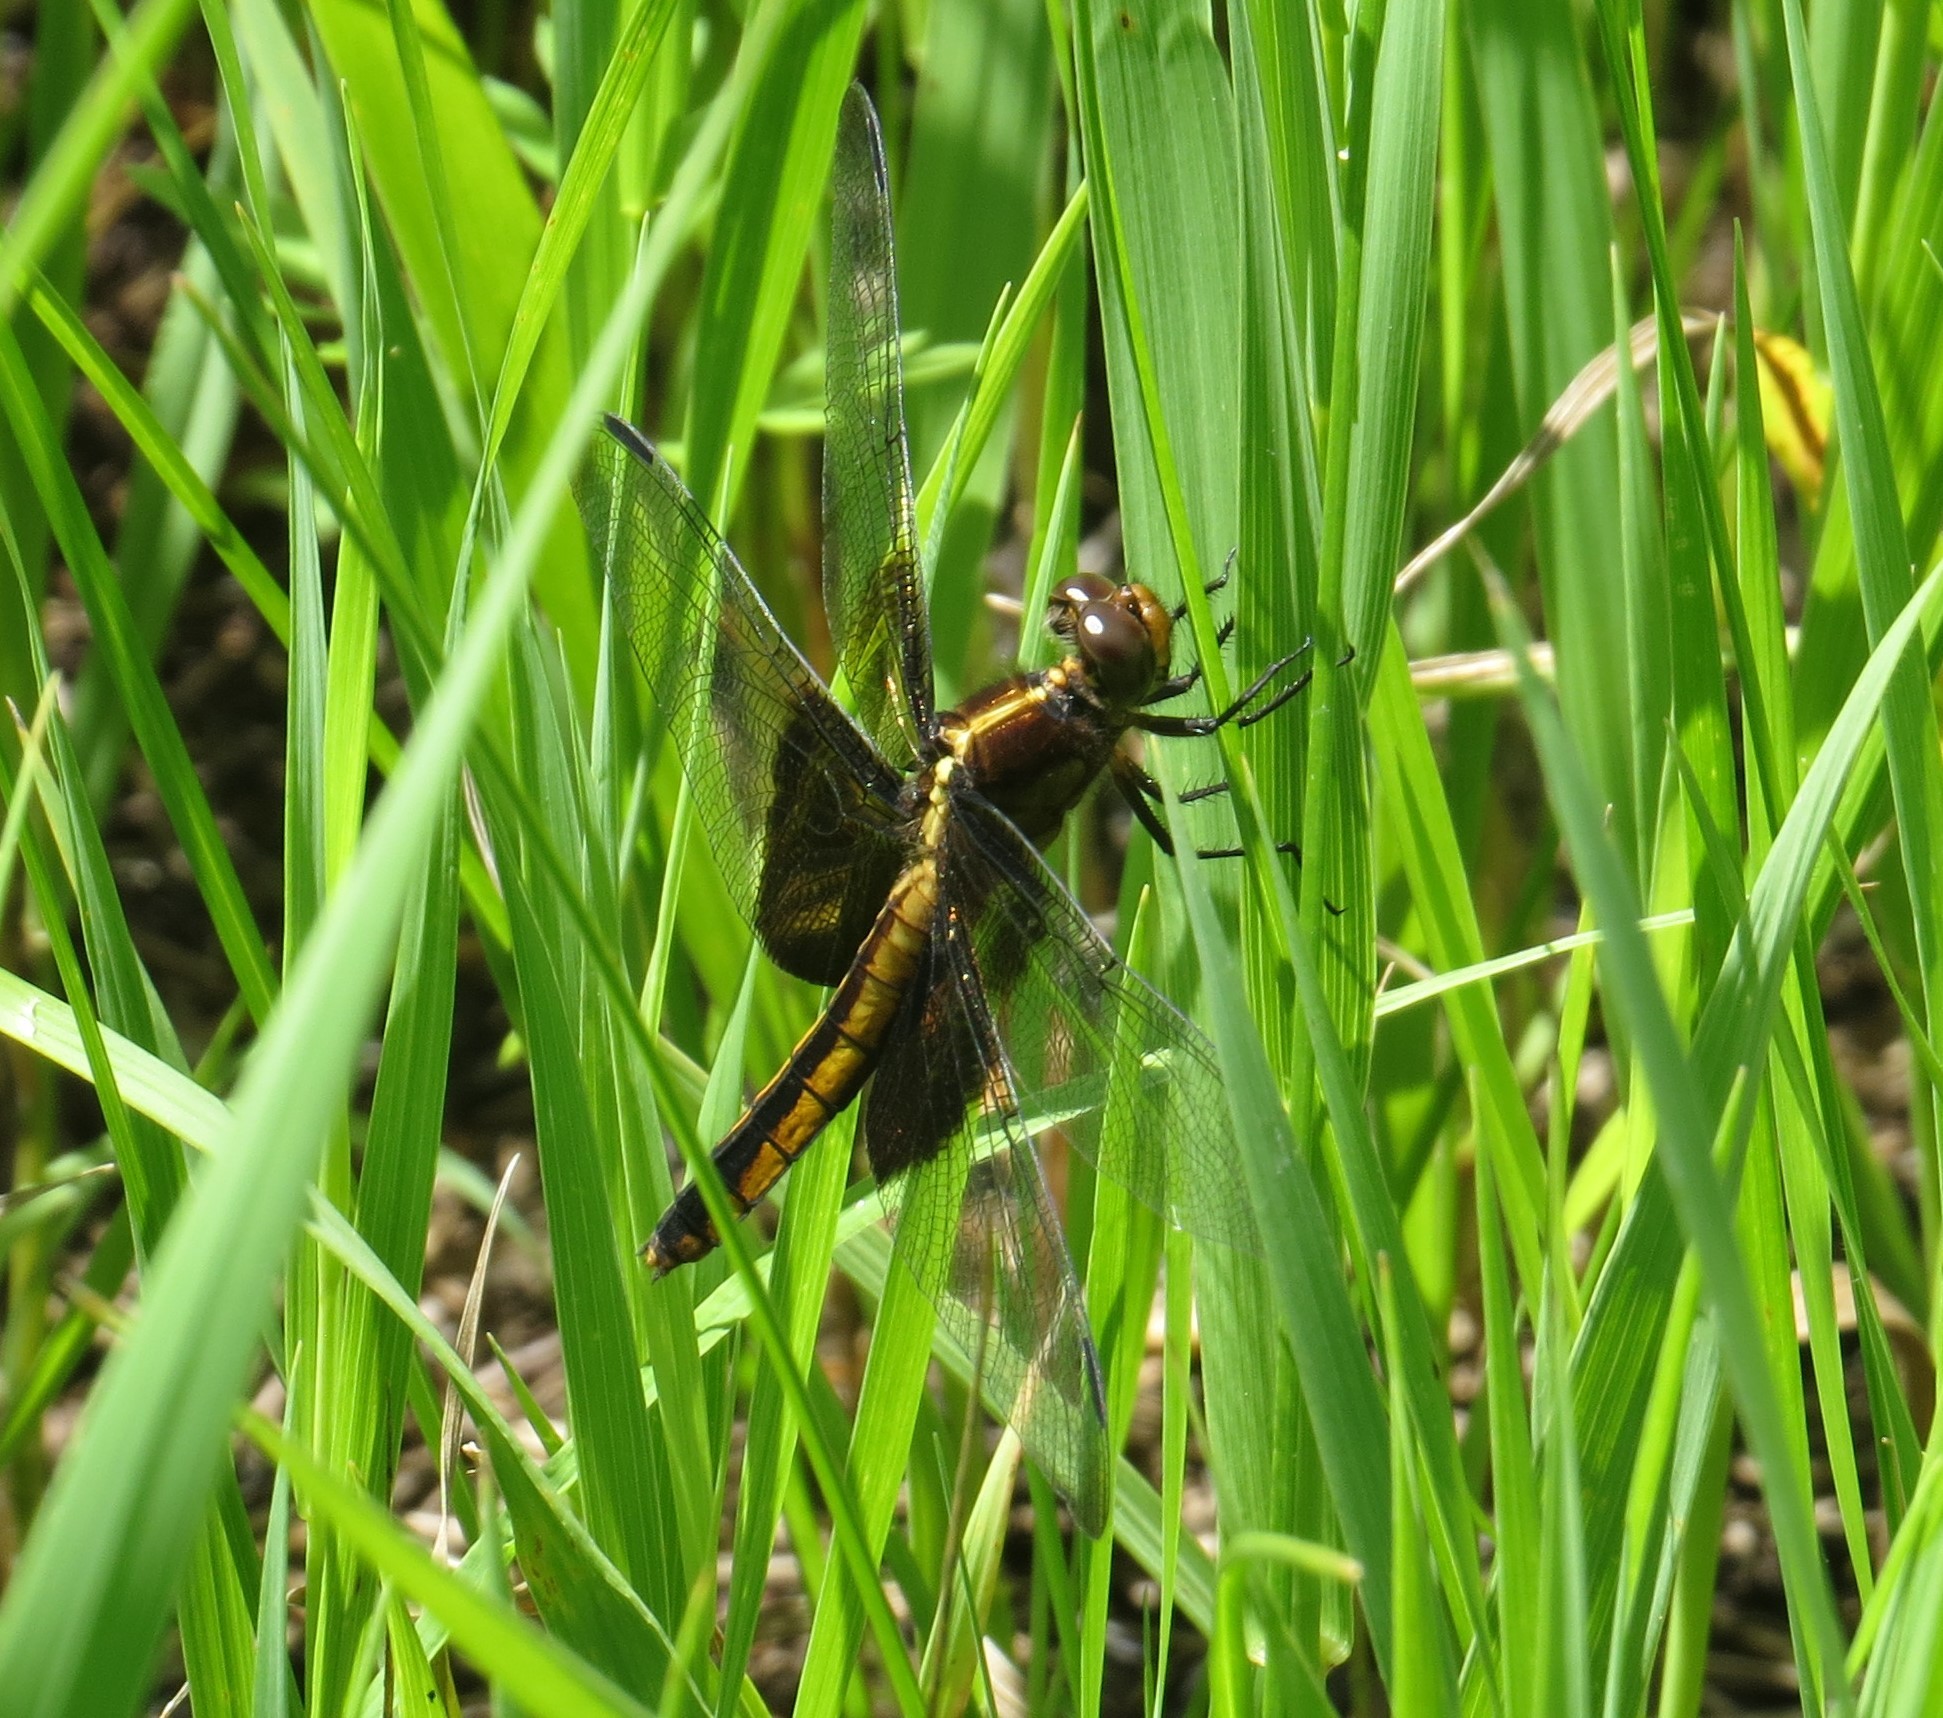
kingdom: Animalia
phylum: Arthropoda
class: Insecta
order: Odonata
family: Libellulidae
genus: Libellula
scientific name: Libellula luctuosa
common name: Widow skimmer
